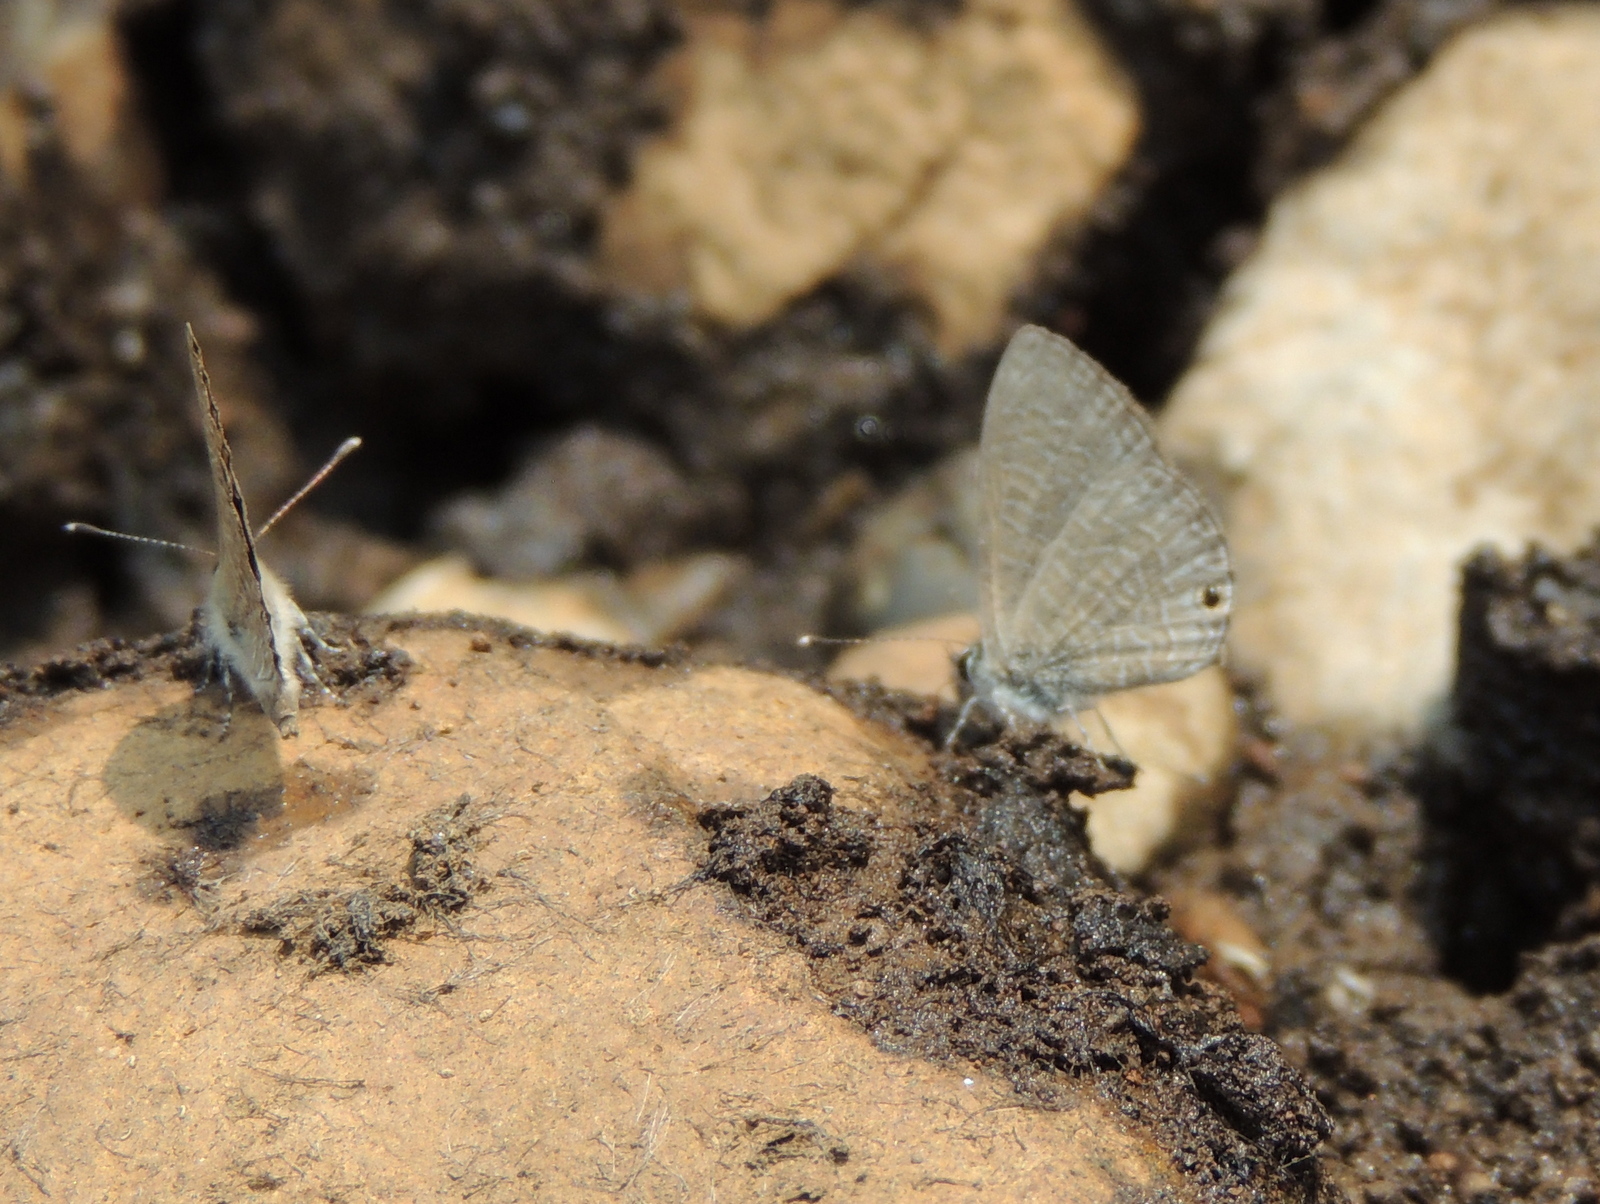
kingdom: Animalia
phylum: Arthropoda
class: Insecta
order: Lepidoptera
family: Lycaenidae
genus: Prosotas
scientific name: Prosotas dubiosa
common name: Tailless lineblue
